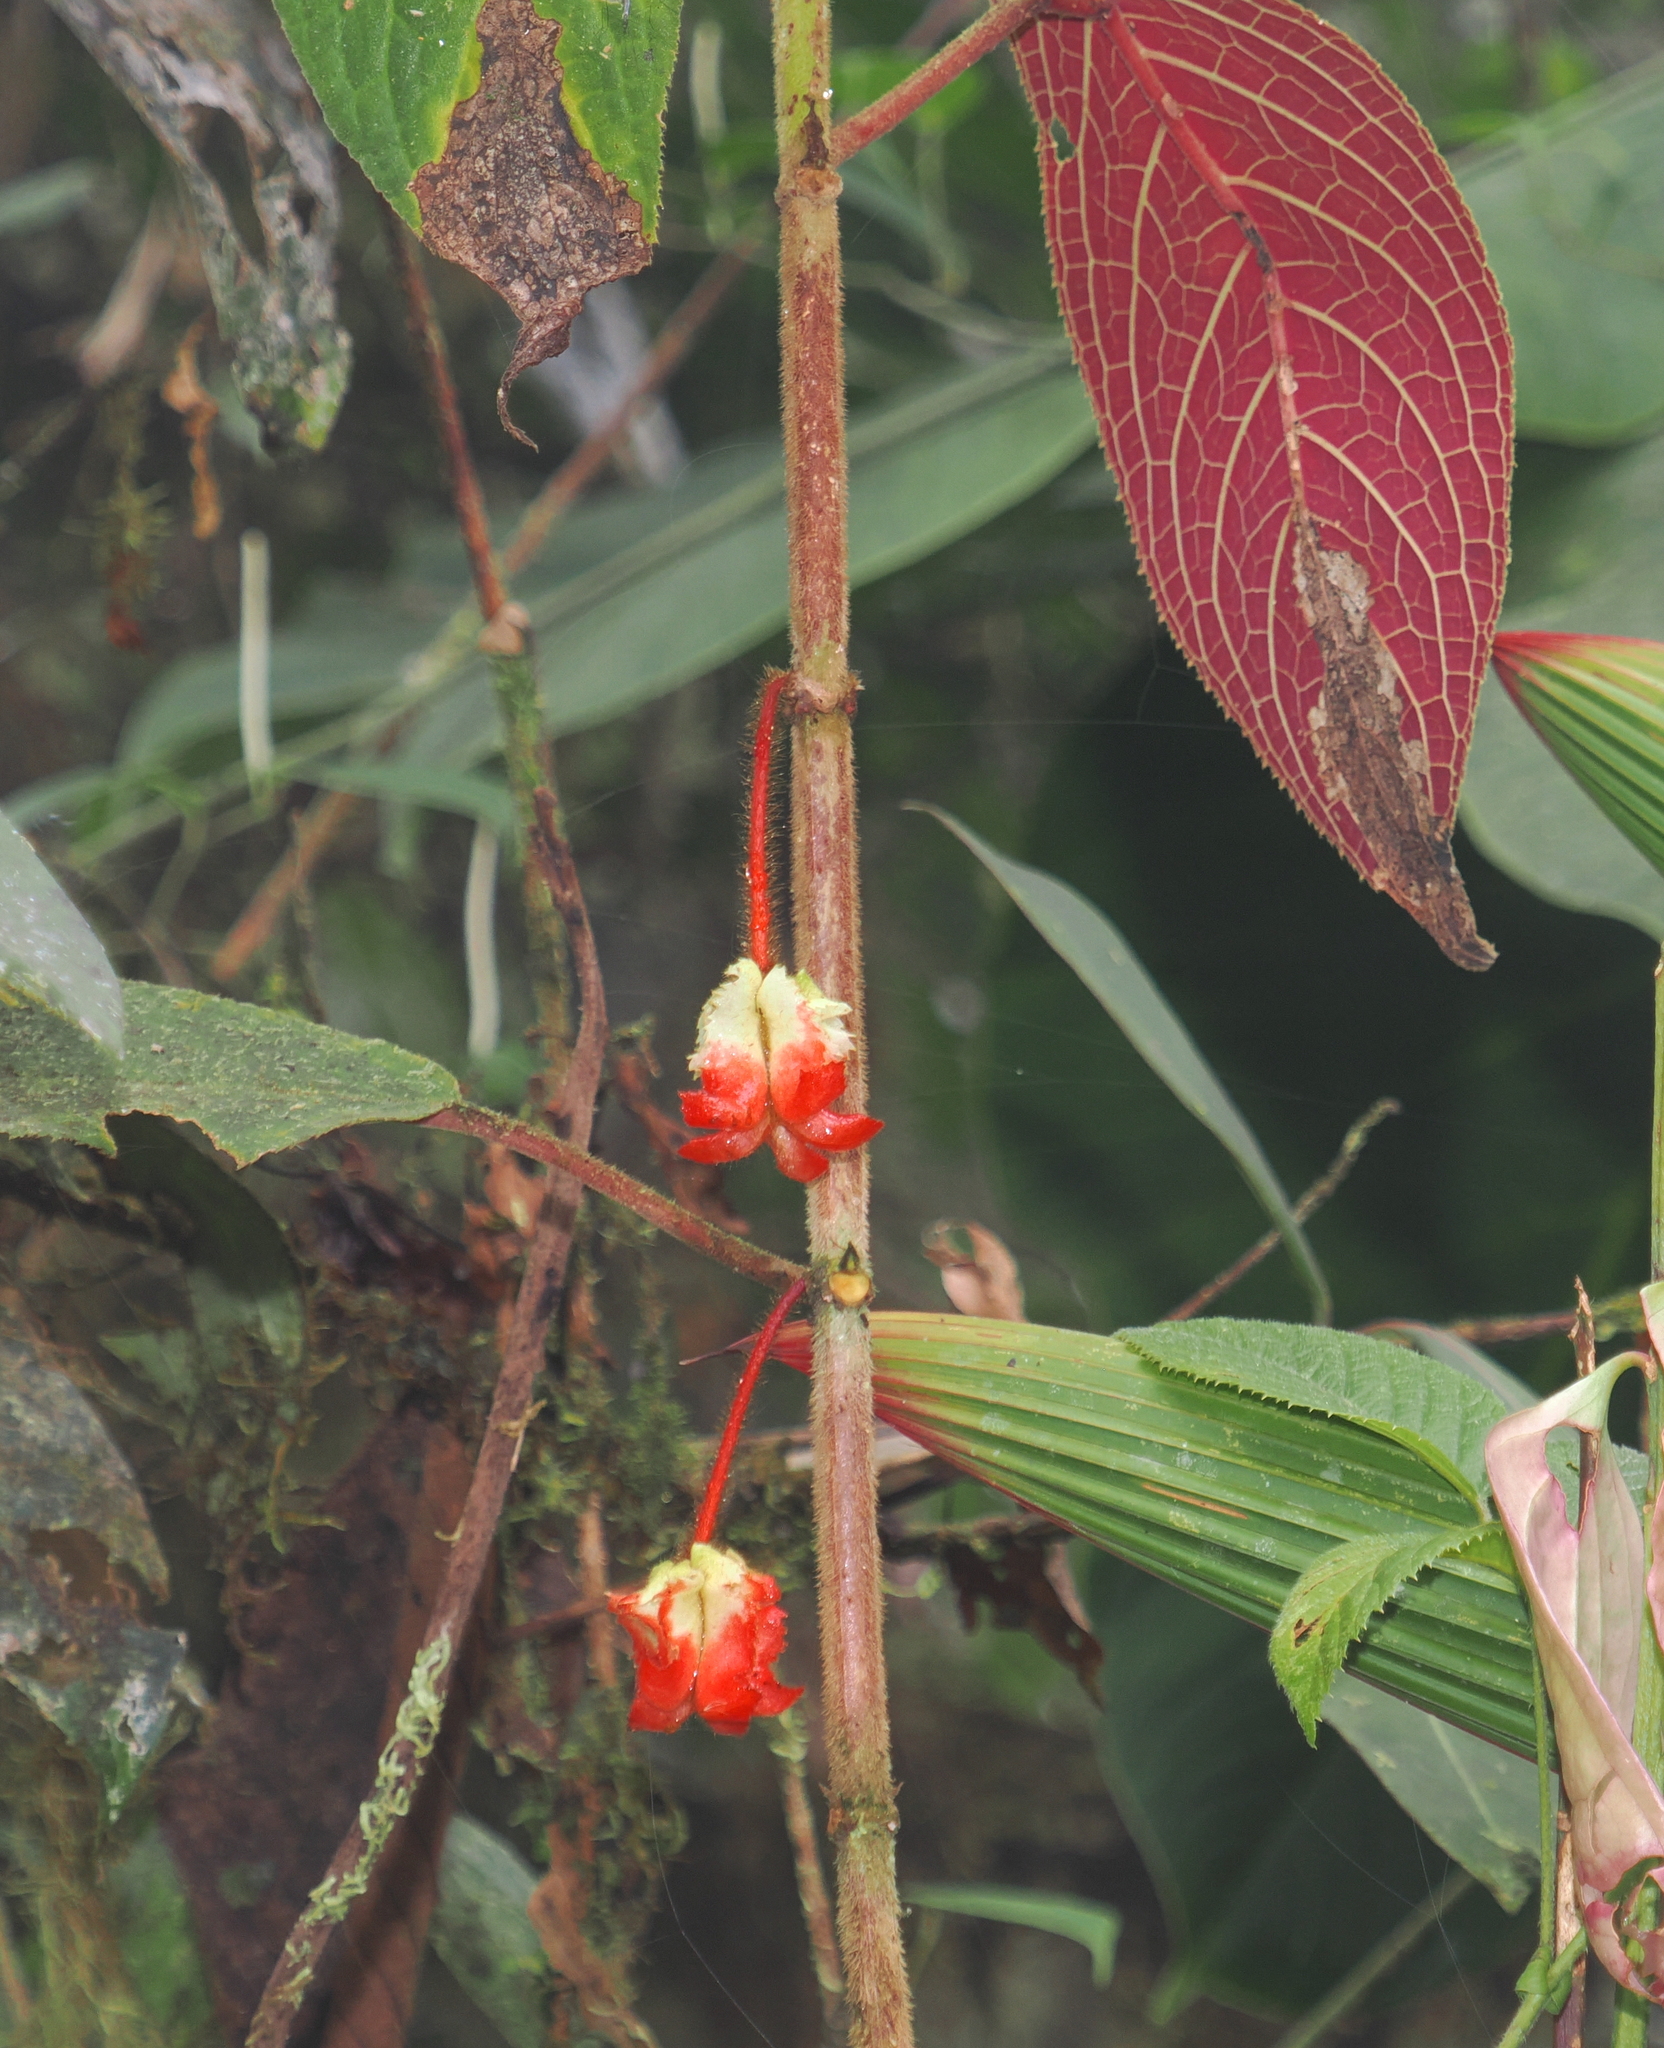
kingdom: Plantae
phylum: Tracheophyta
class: Magnoliopsida
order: Lamiales
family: Gesneriaceae
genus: Glossoloma
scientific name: Glossoloma schultzei
